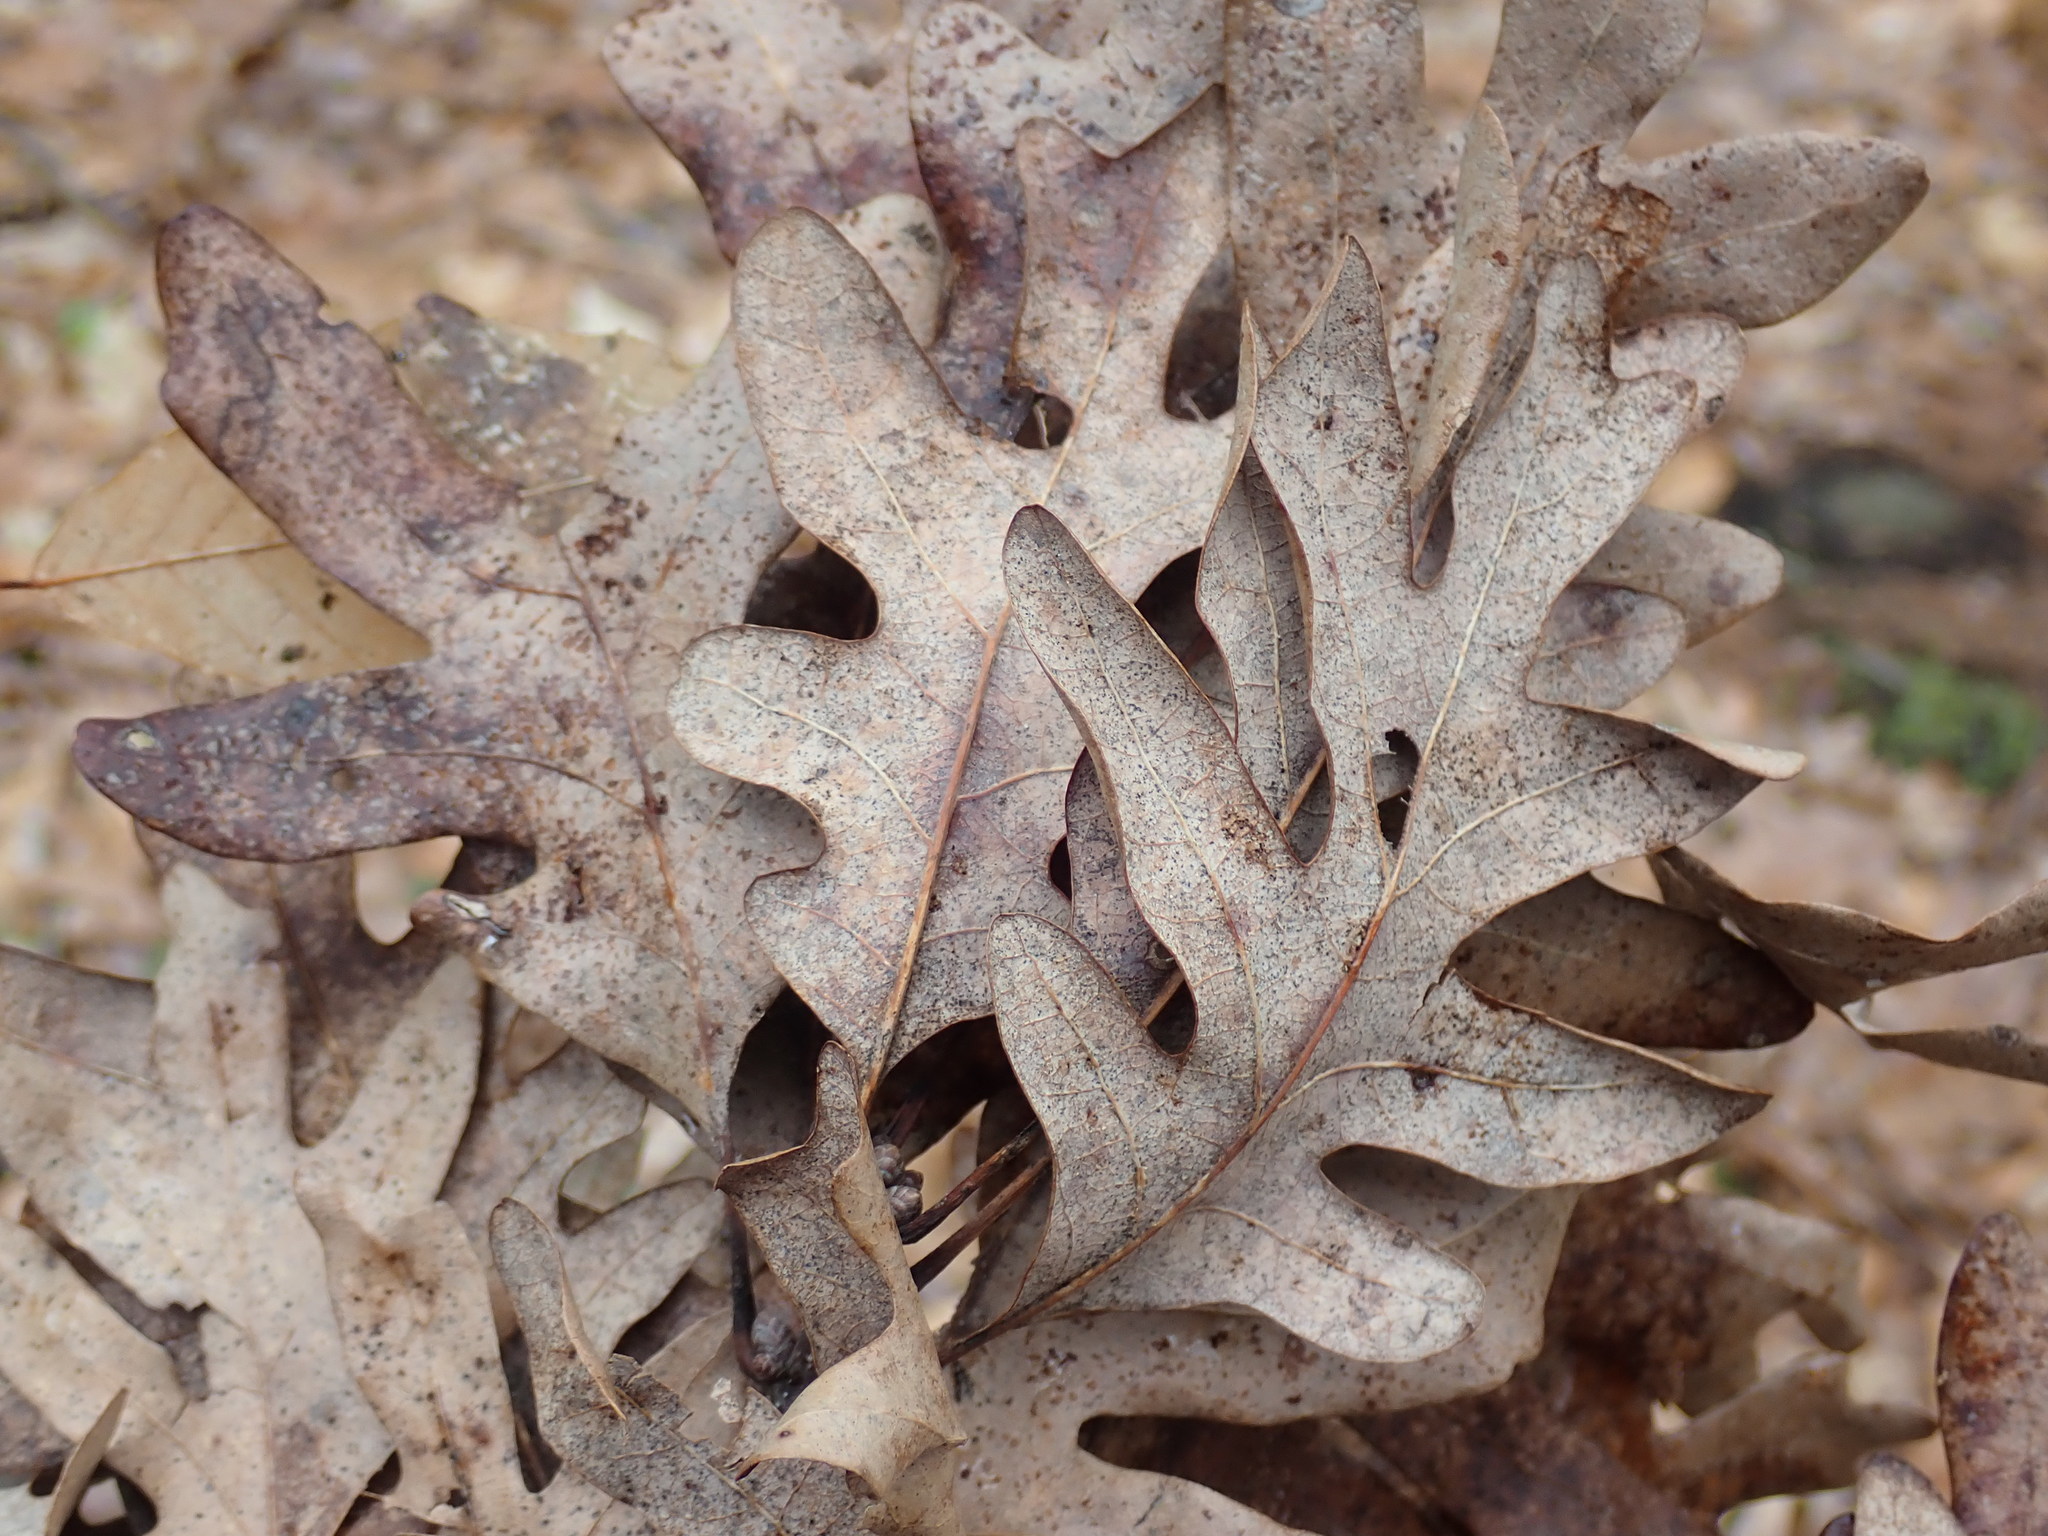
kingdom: Plantae
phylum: Tracheophyta
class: Magnoliopsida
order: Fagales
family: Fagaceae
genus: Quercus
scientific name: Quercus alba
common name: White oak
